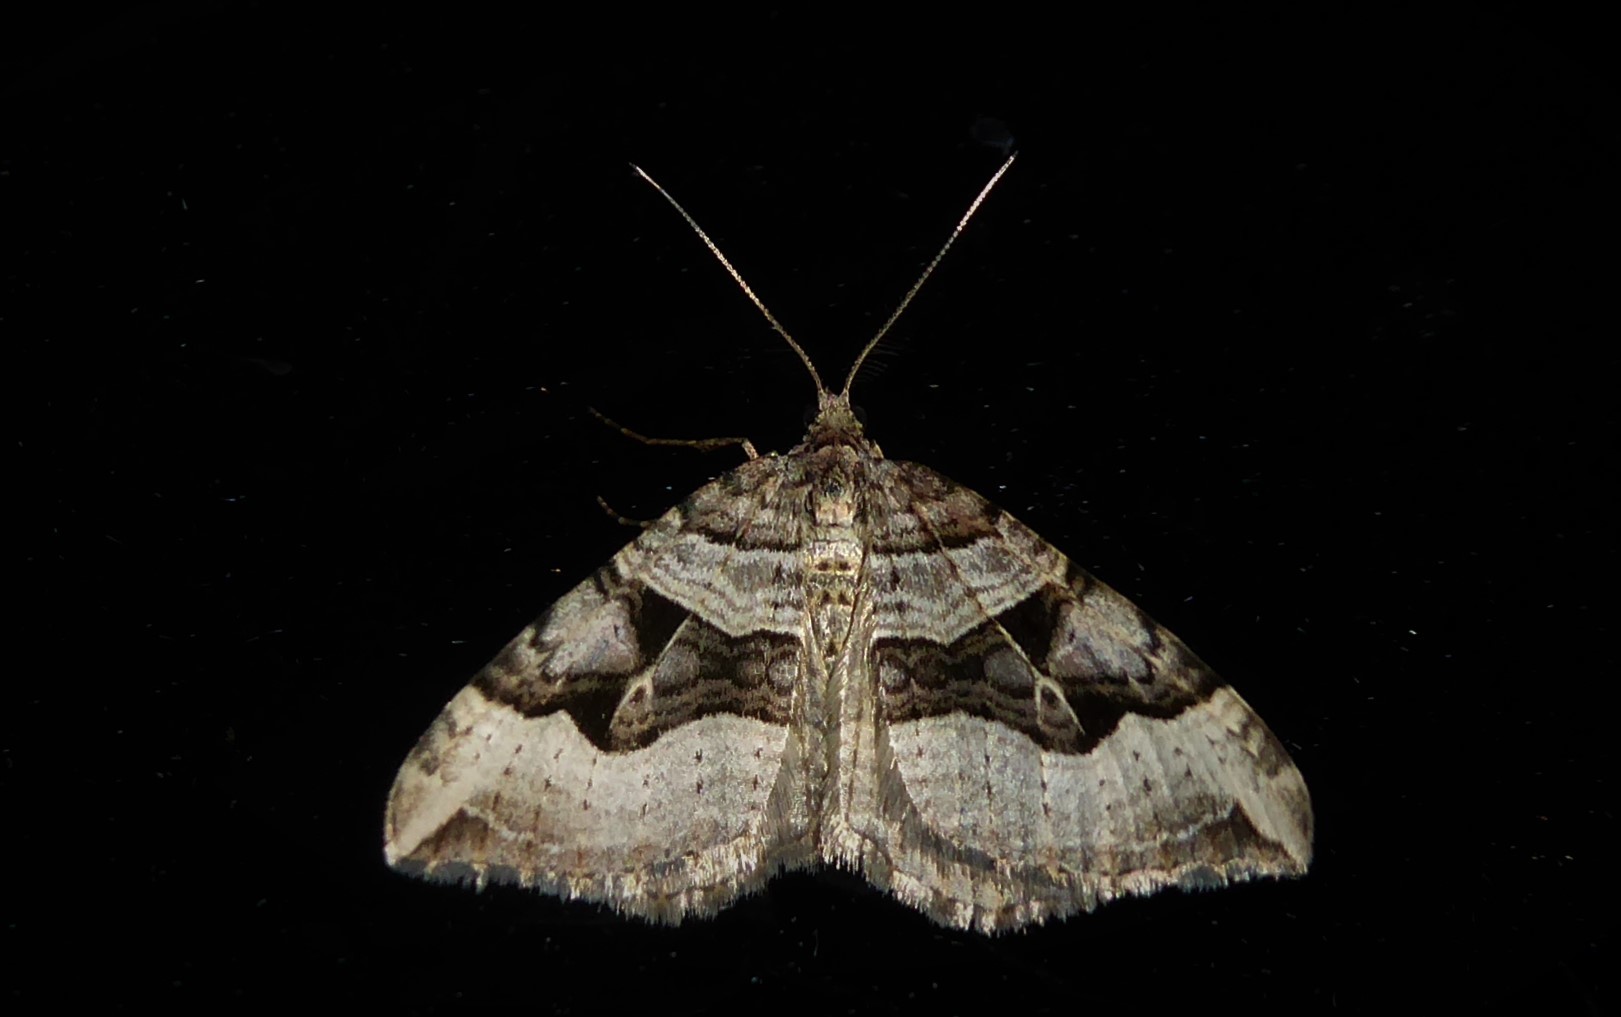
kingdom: Animalia
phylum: Arthropoda
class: Insecta
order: Lepidoptera
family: Geometridae
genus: Xanthorhoe
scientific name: Xanthorhoe semifissata
